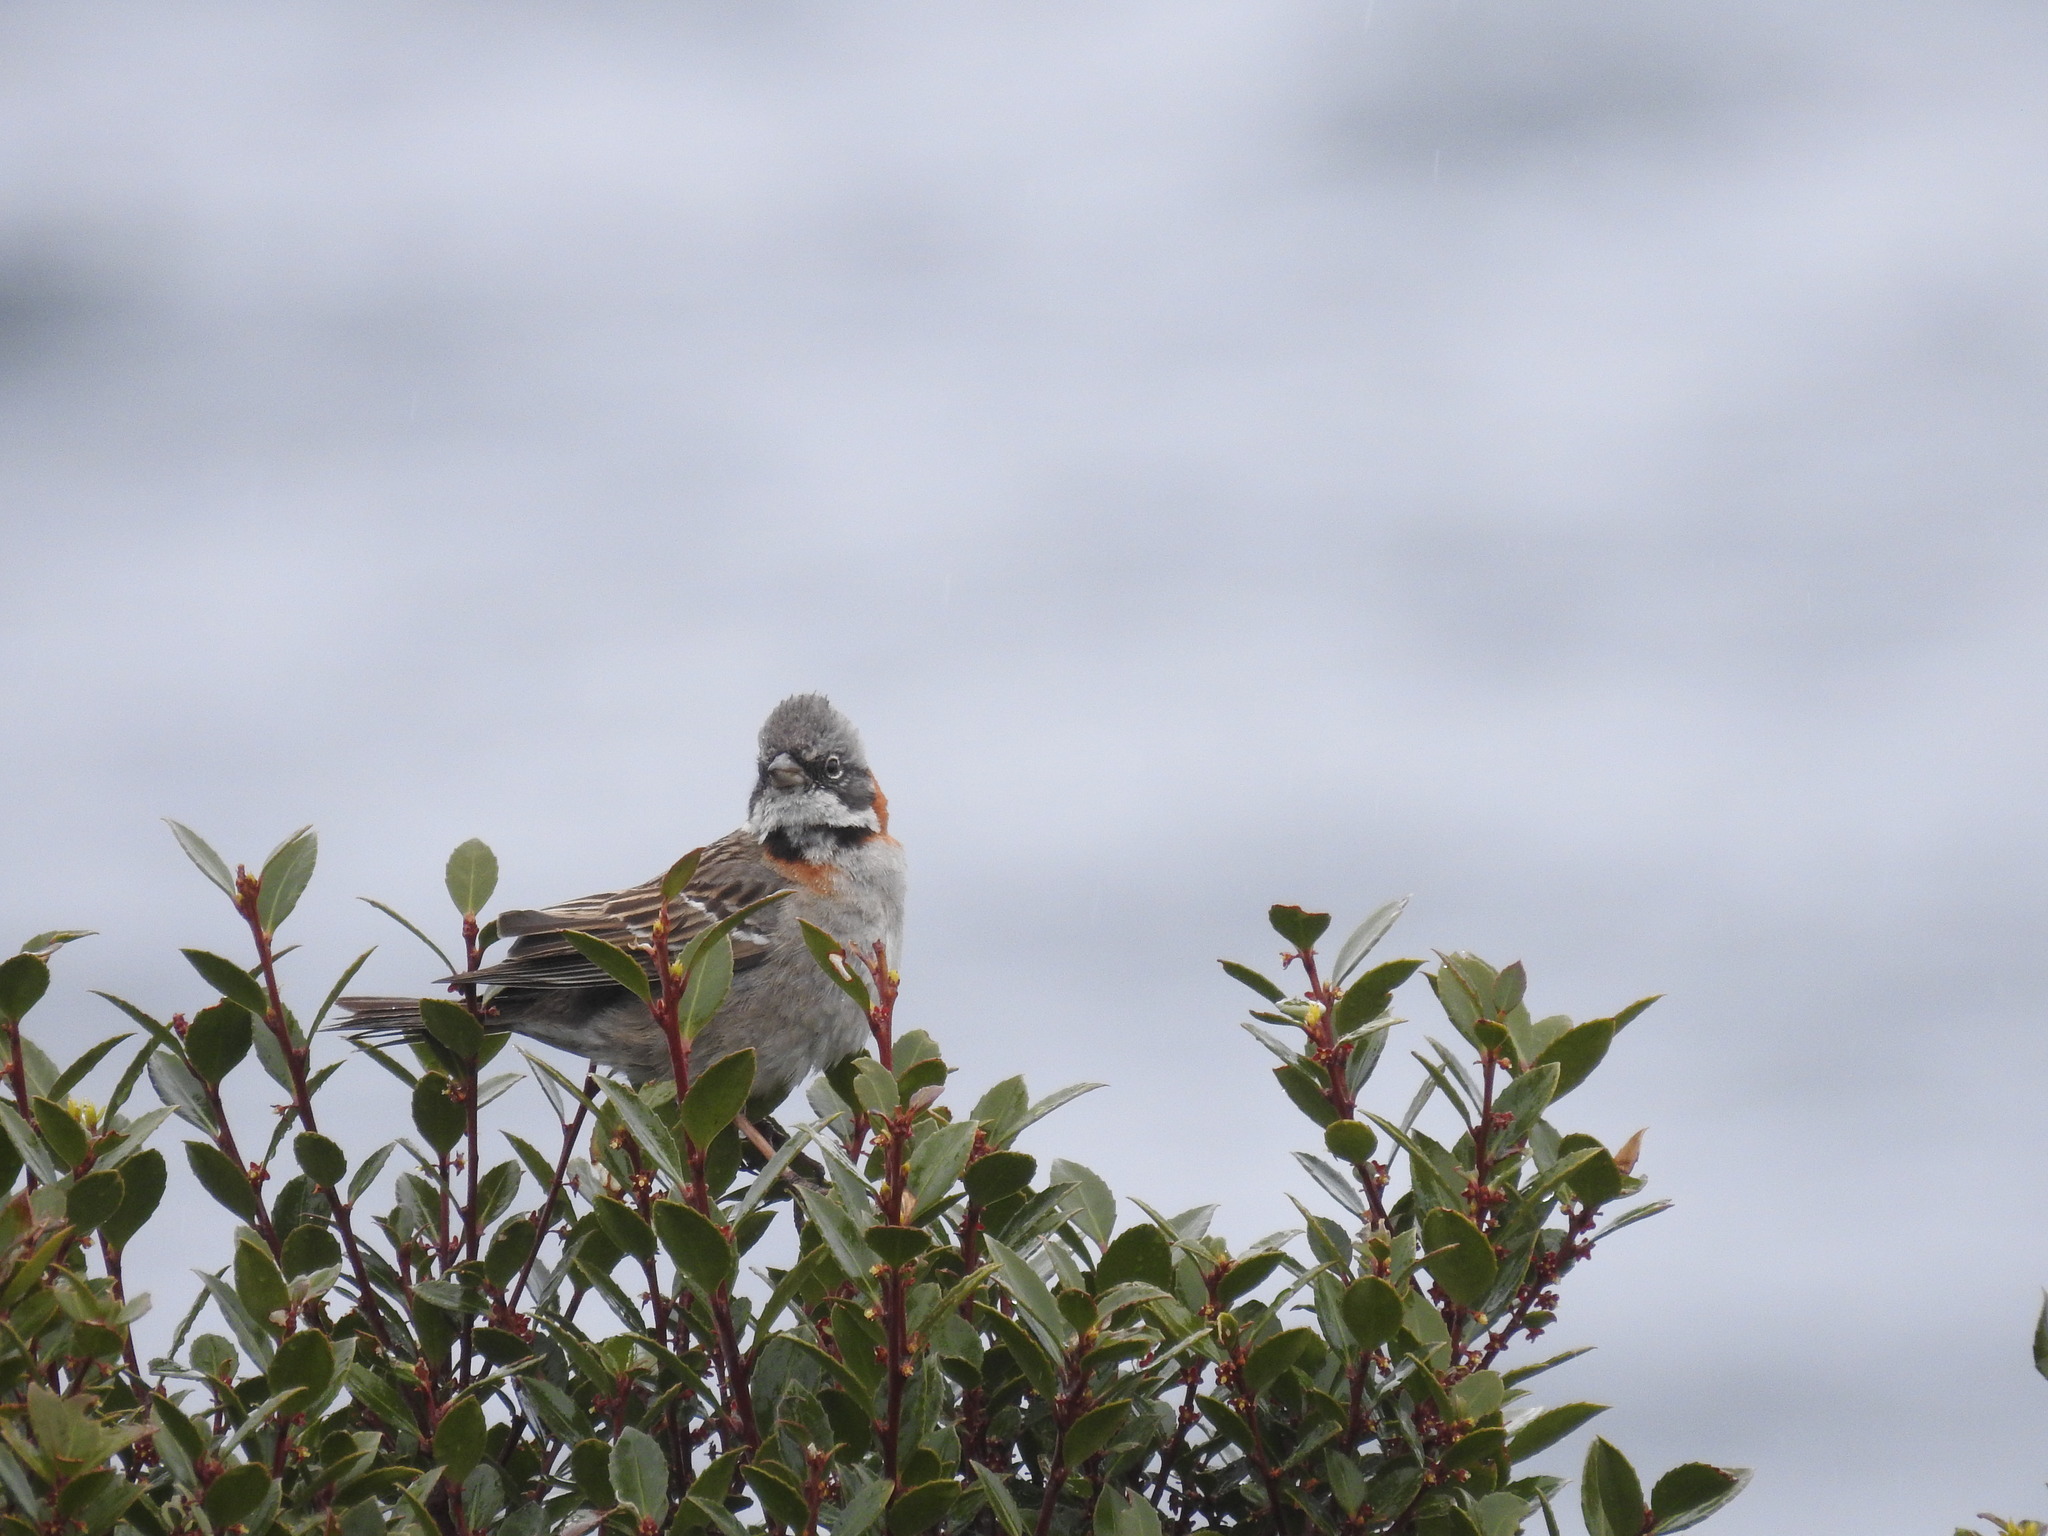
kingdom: Animalia
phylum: Chordata
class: Aves
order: Passeriformes
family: Passerellidae
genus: Zonotrichia
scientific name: Zonotrichia capensis
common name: Rufous-collared sparrow
